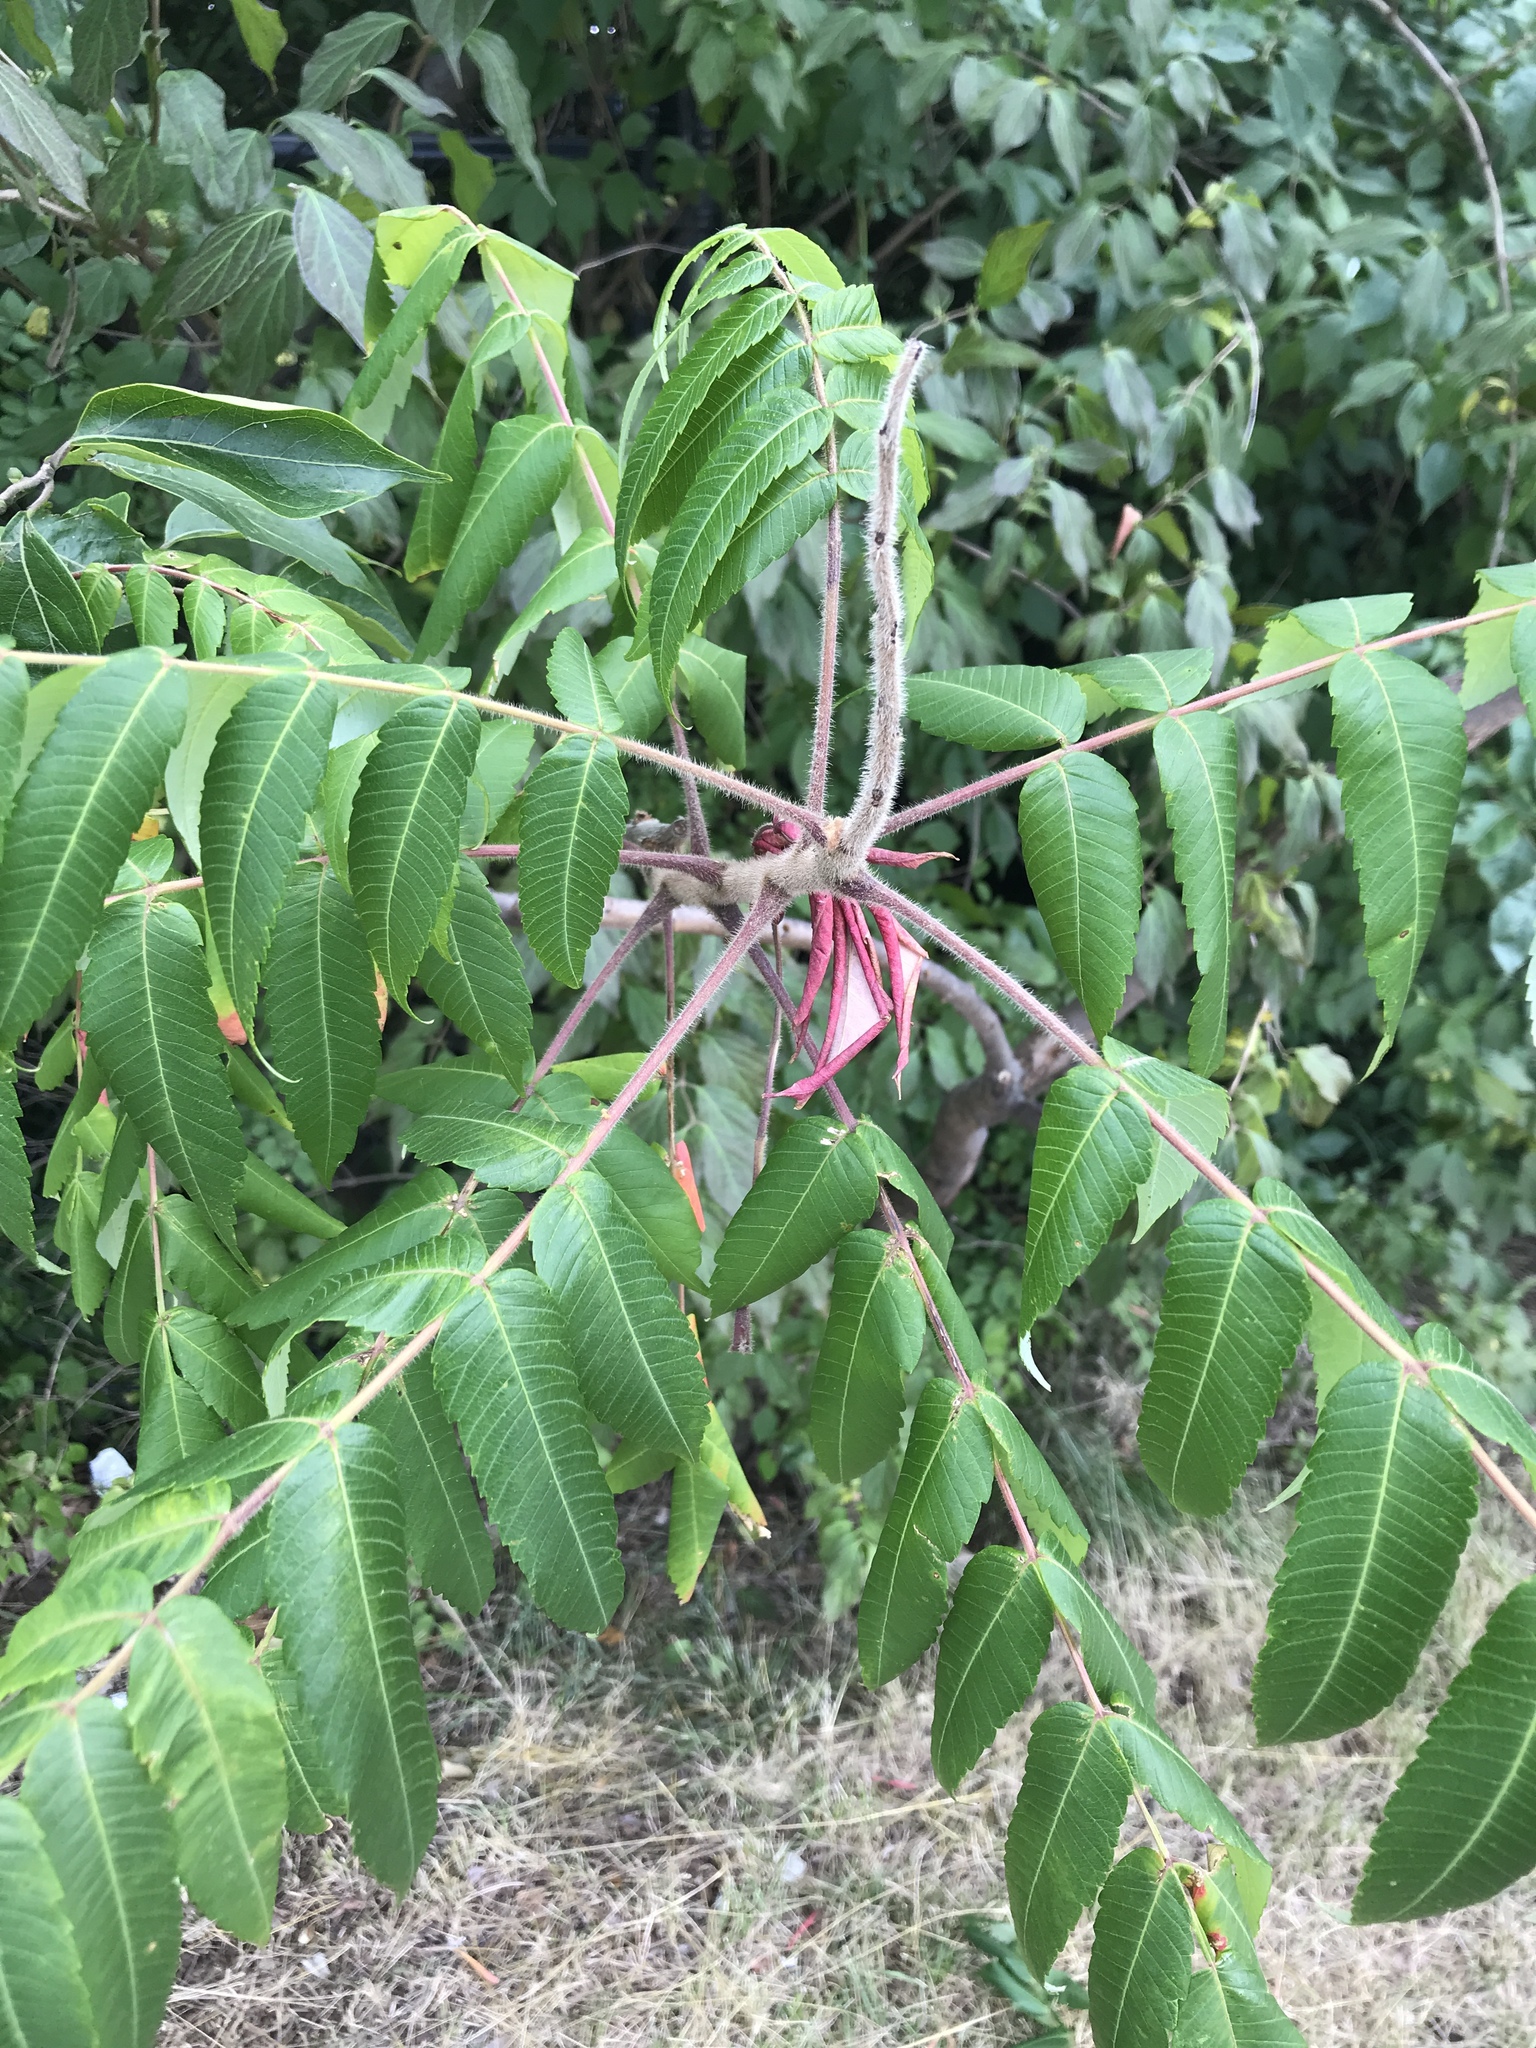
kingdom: Plantae
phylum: Tracheophyta
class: Magnoliopsida
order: Sapindales
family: Anacardiaceae
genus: Rhus
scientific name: Rhus typhina
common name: Staghorn sumac
